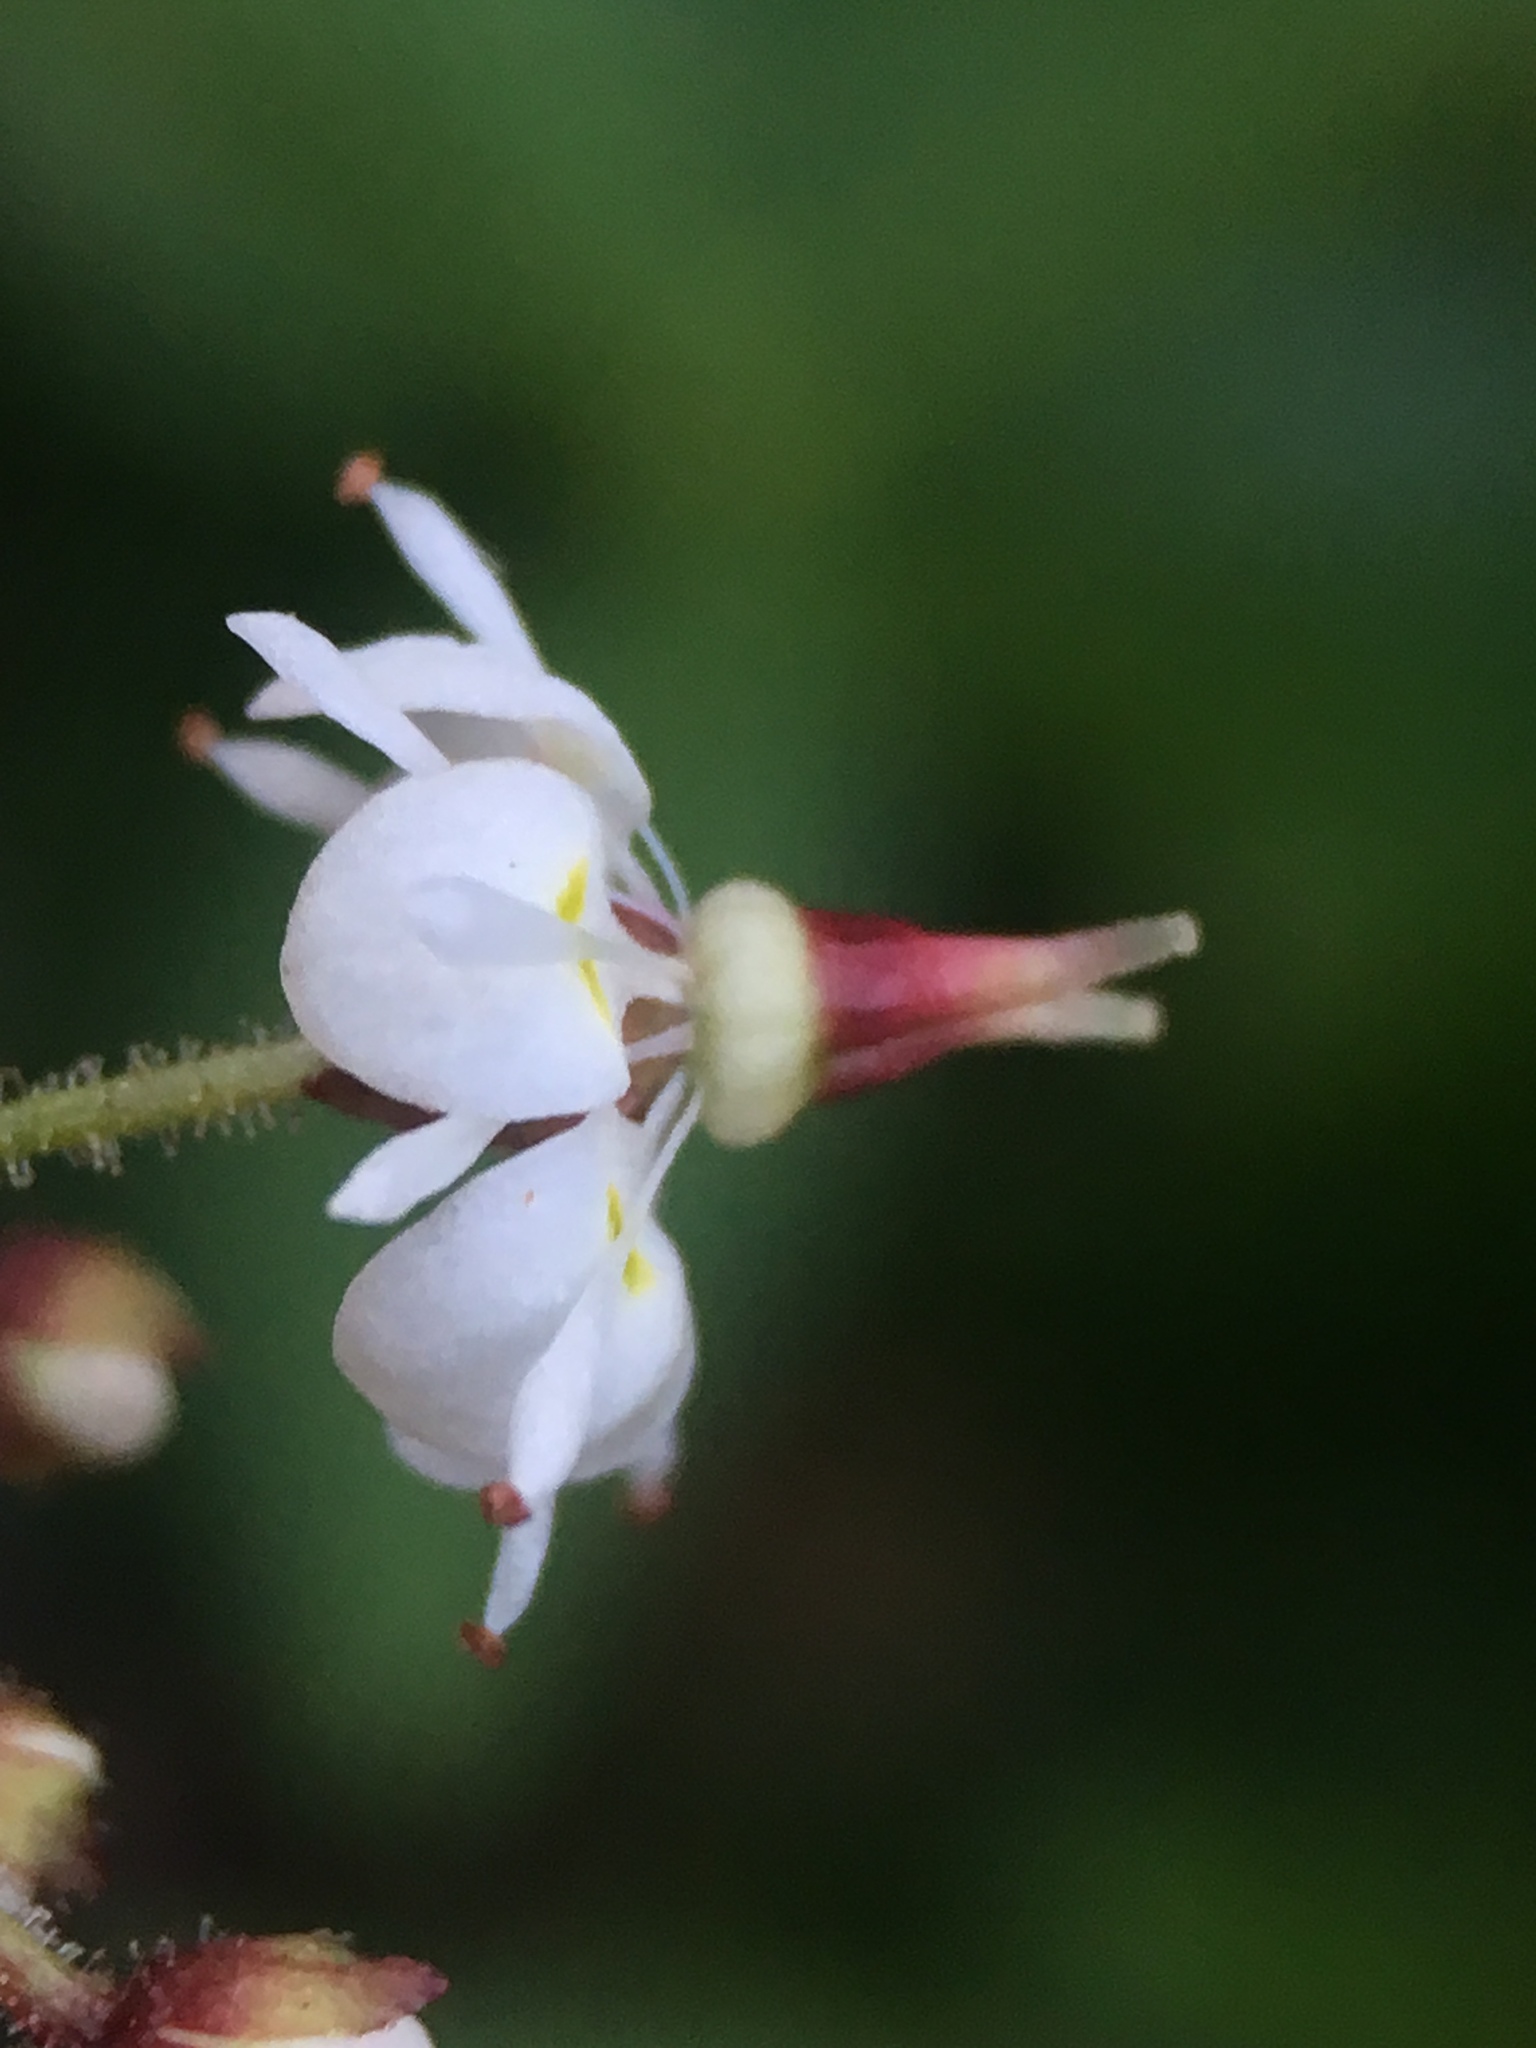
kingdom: Plantae
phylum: Tracheophyta
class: Magnoliopsida
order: Saxifragales
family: Saxifragaceae
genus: Micranthes
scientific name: Micranthes odontoloma
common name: Brook saxifrage
